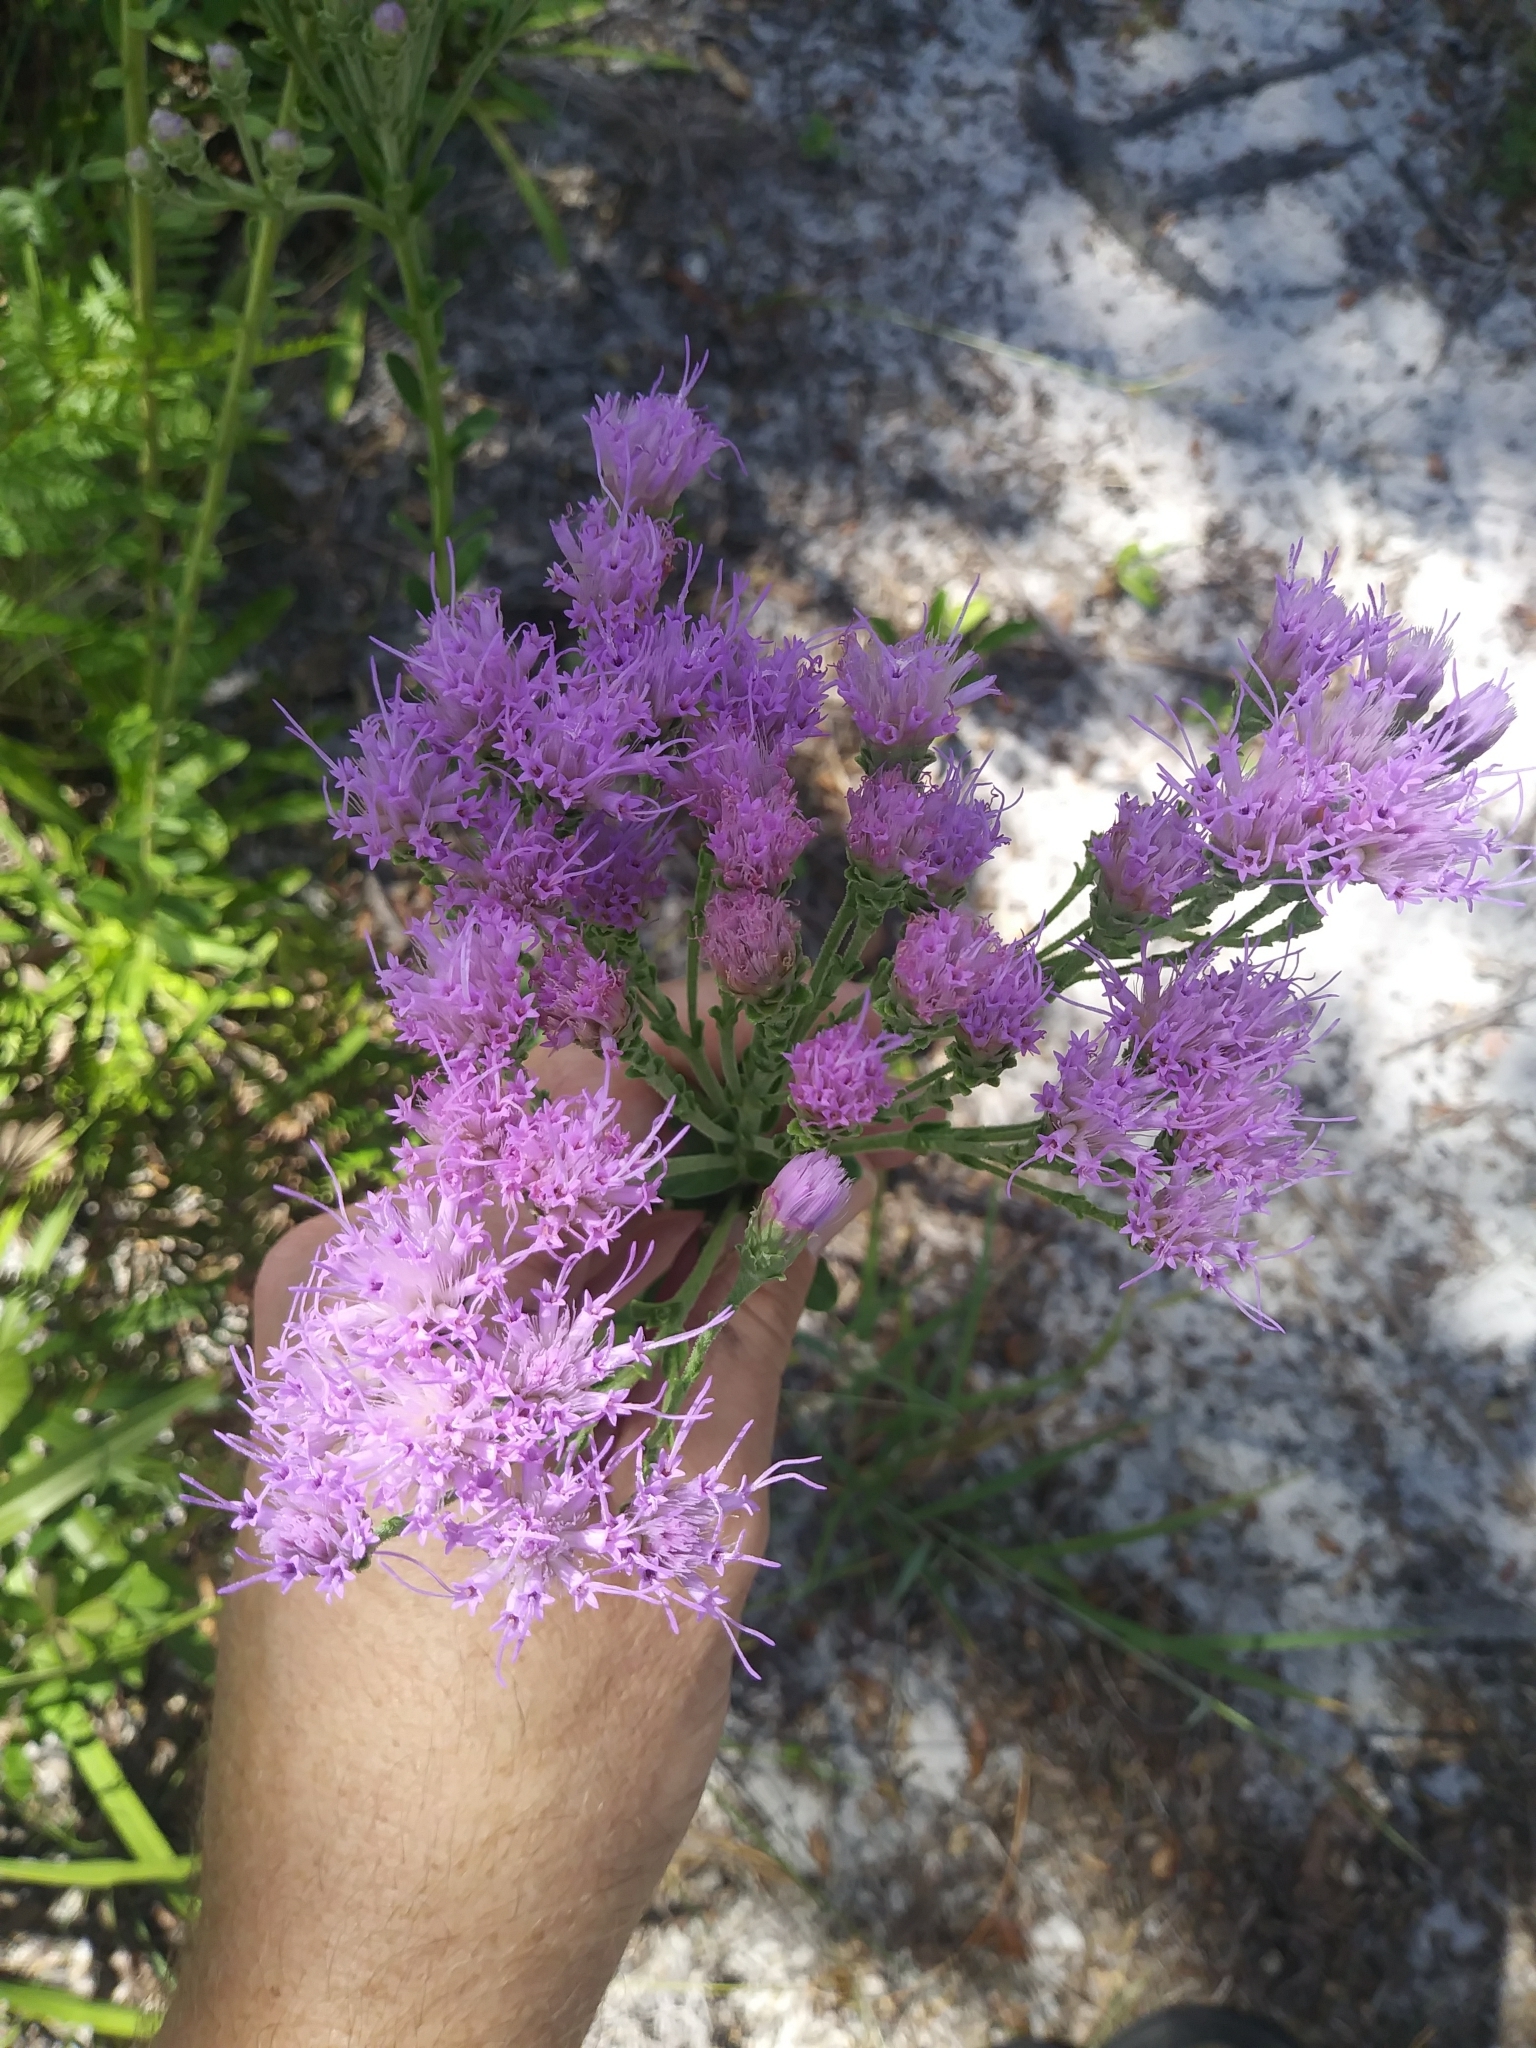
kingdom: Plantae
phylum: Tracheophyta
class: Magnoliopsida
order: Asterales
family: Asteraceae
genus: Carphephorus
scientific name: Carphephorus corymbosus
